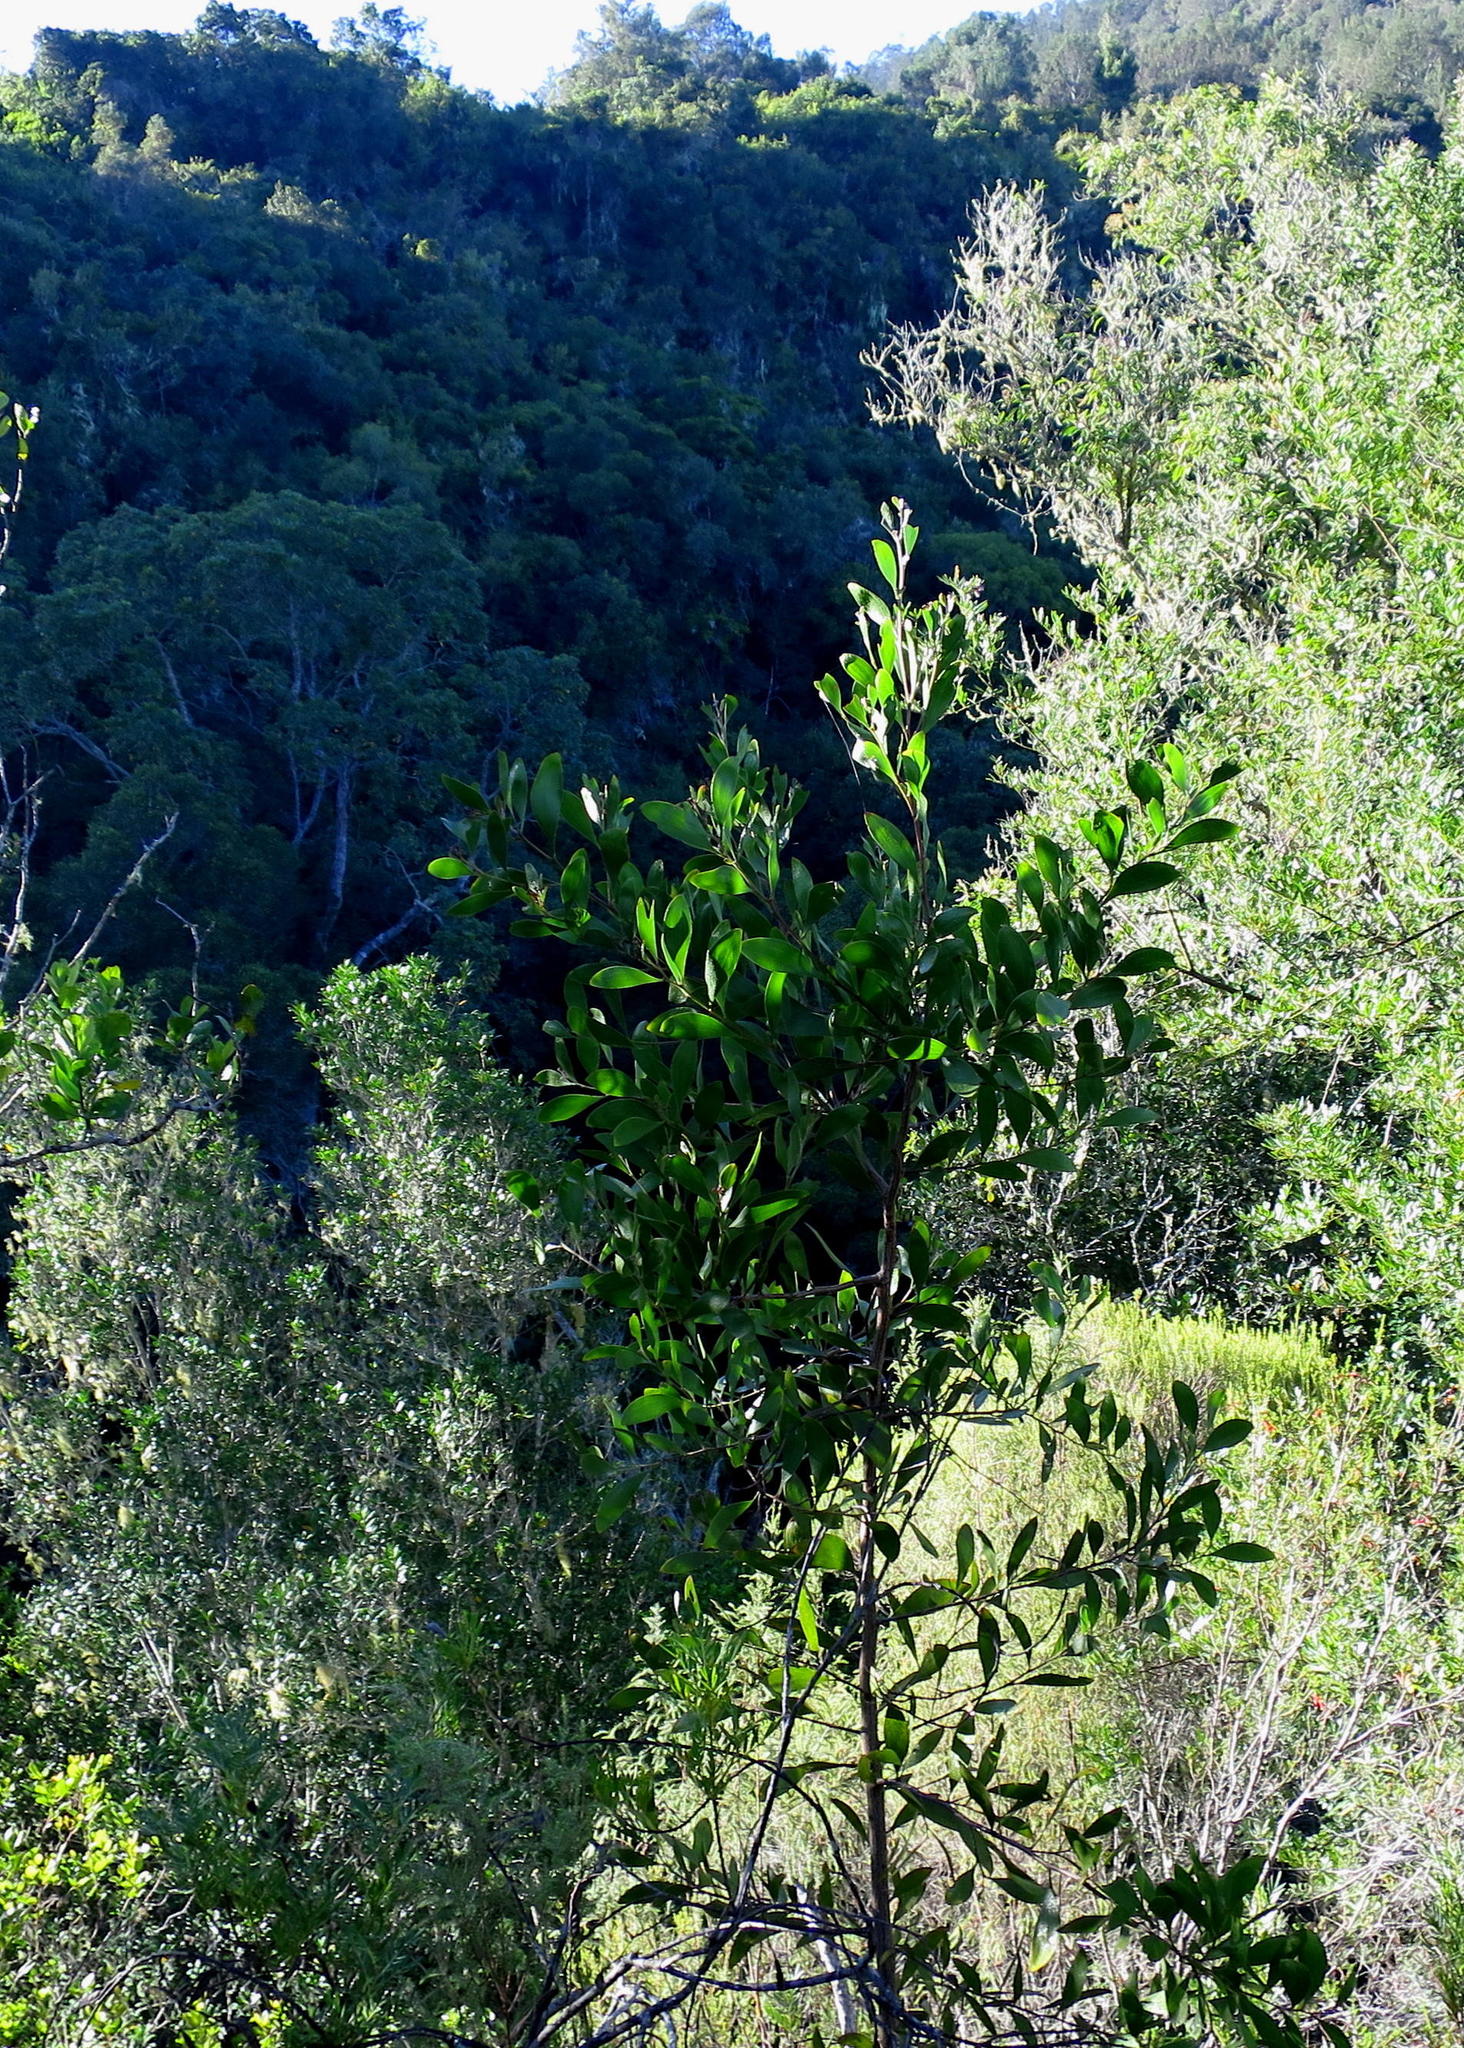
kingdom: Plantae
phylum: Tracheophyta
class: Magnoliopsida
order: Fabales
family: Fabaceae
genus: Acacia
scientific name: Acacia melanoxylon
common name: Blackwood
